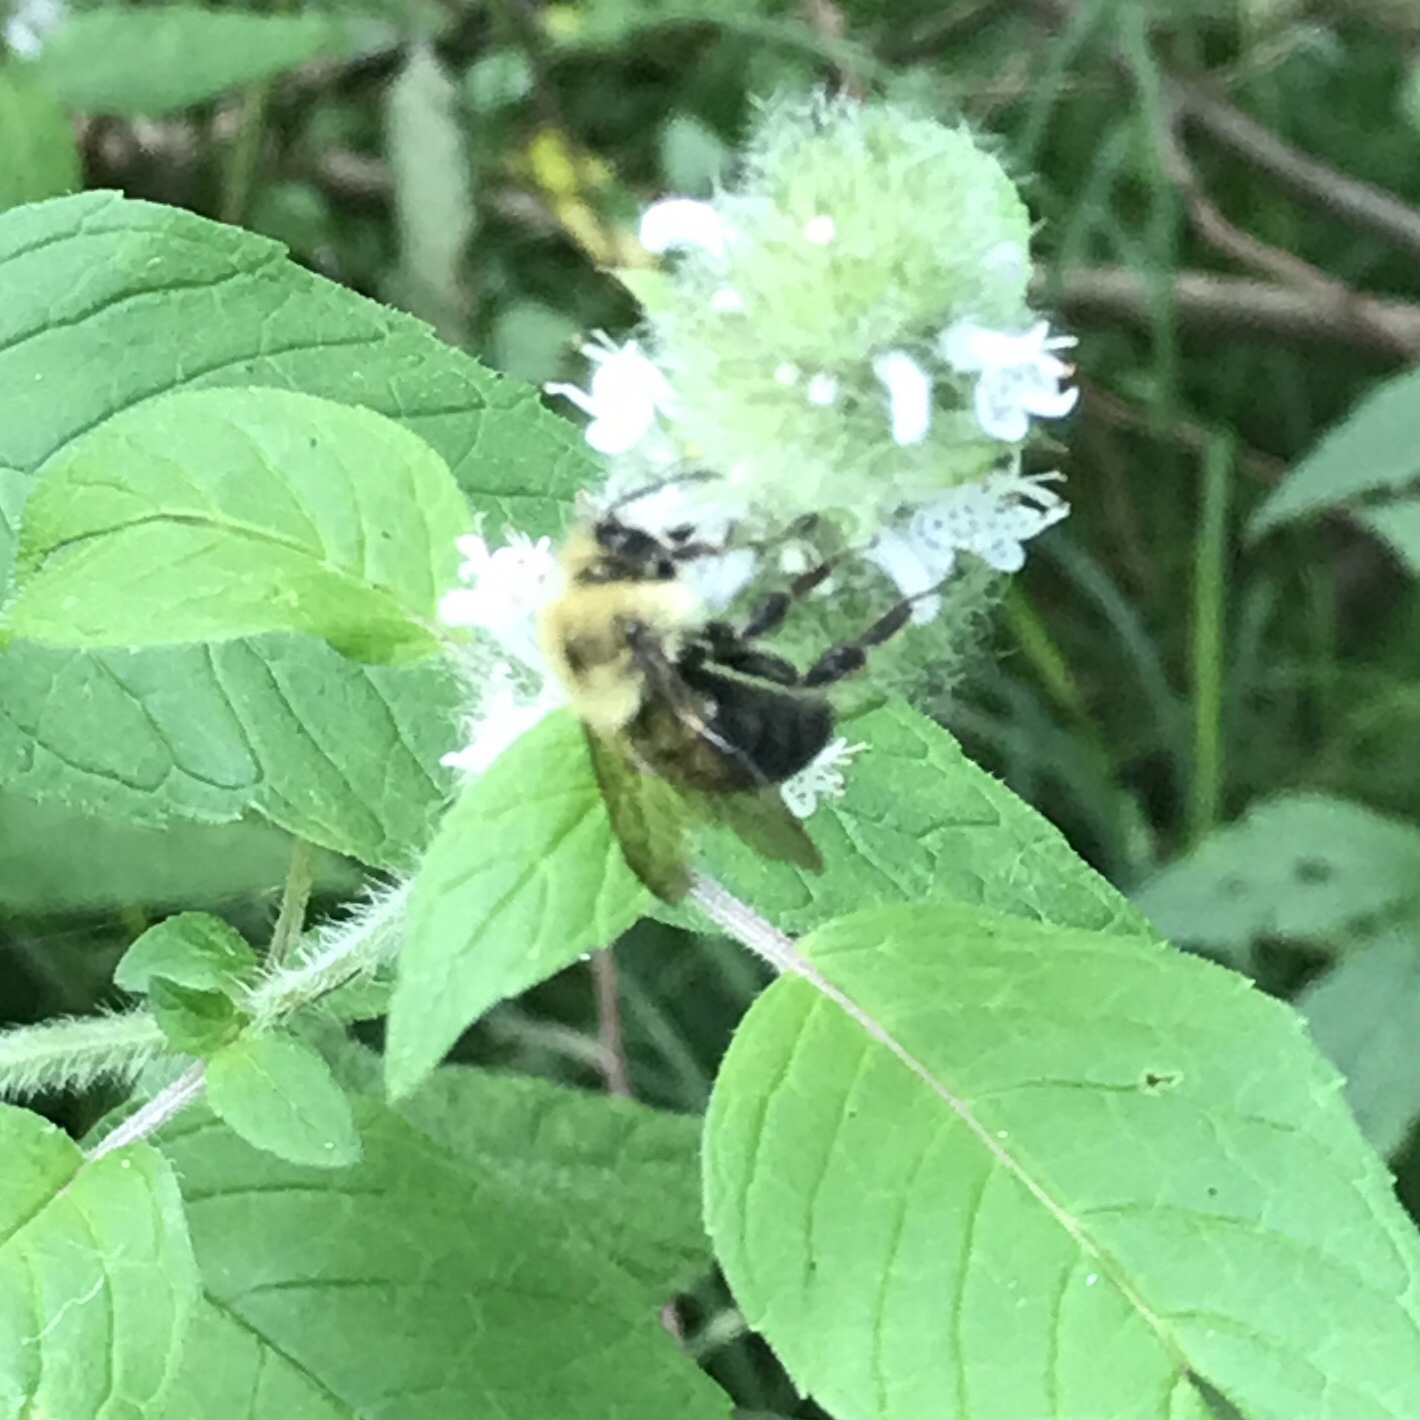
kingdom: Animalia
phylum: Arthropoda
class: Insecta
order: Hymenoptera
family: Apidae
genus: Bombus
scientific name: Bombus bimaculatus
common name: Two-spotted bumble bee
